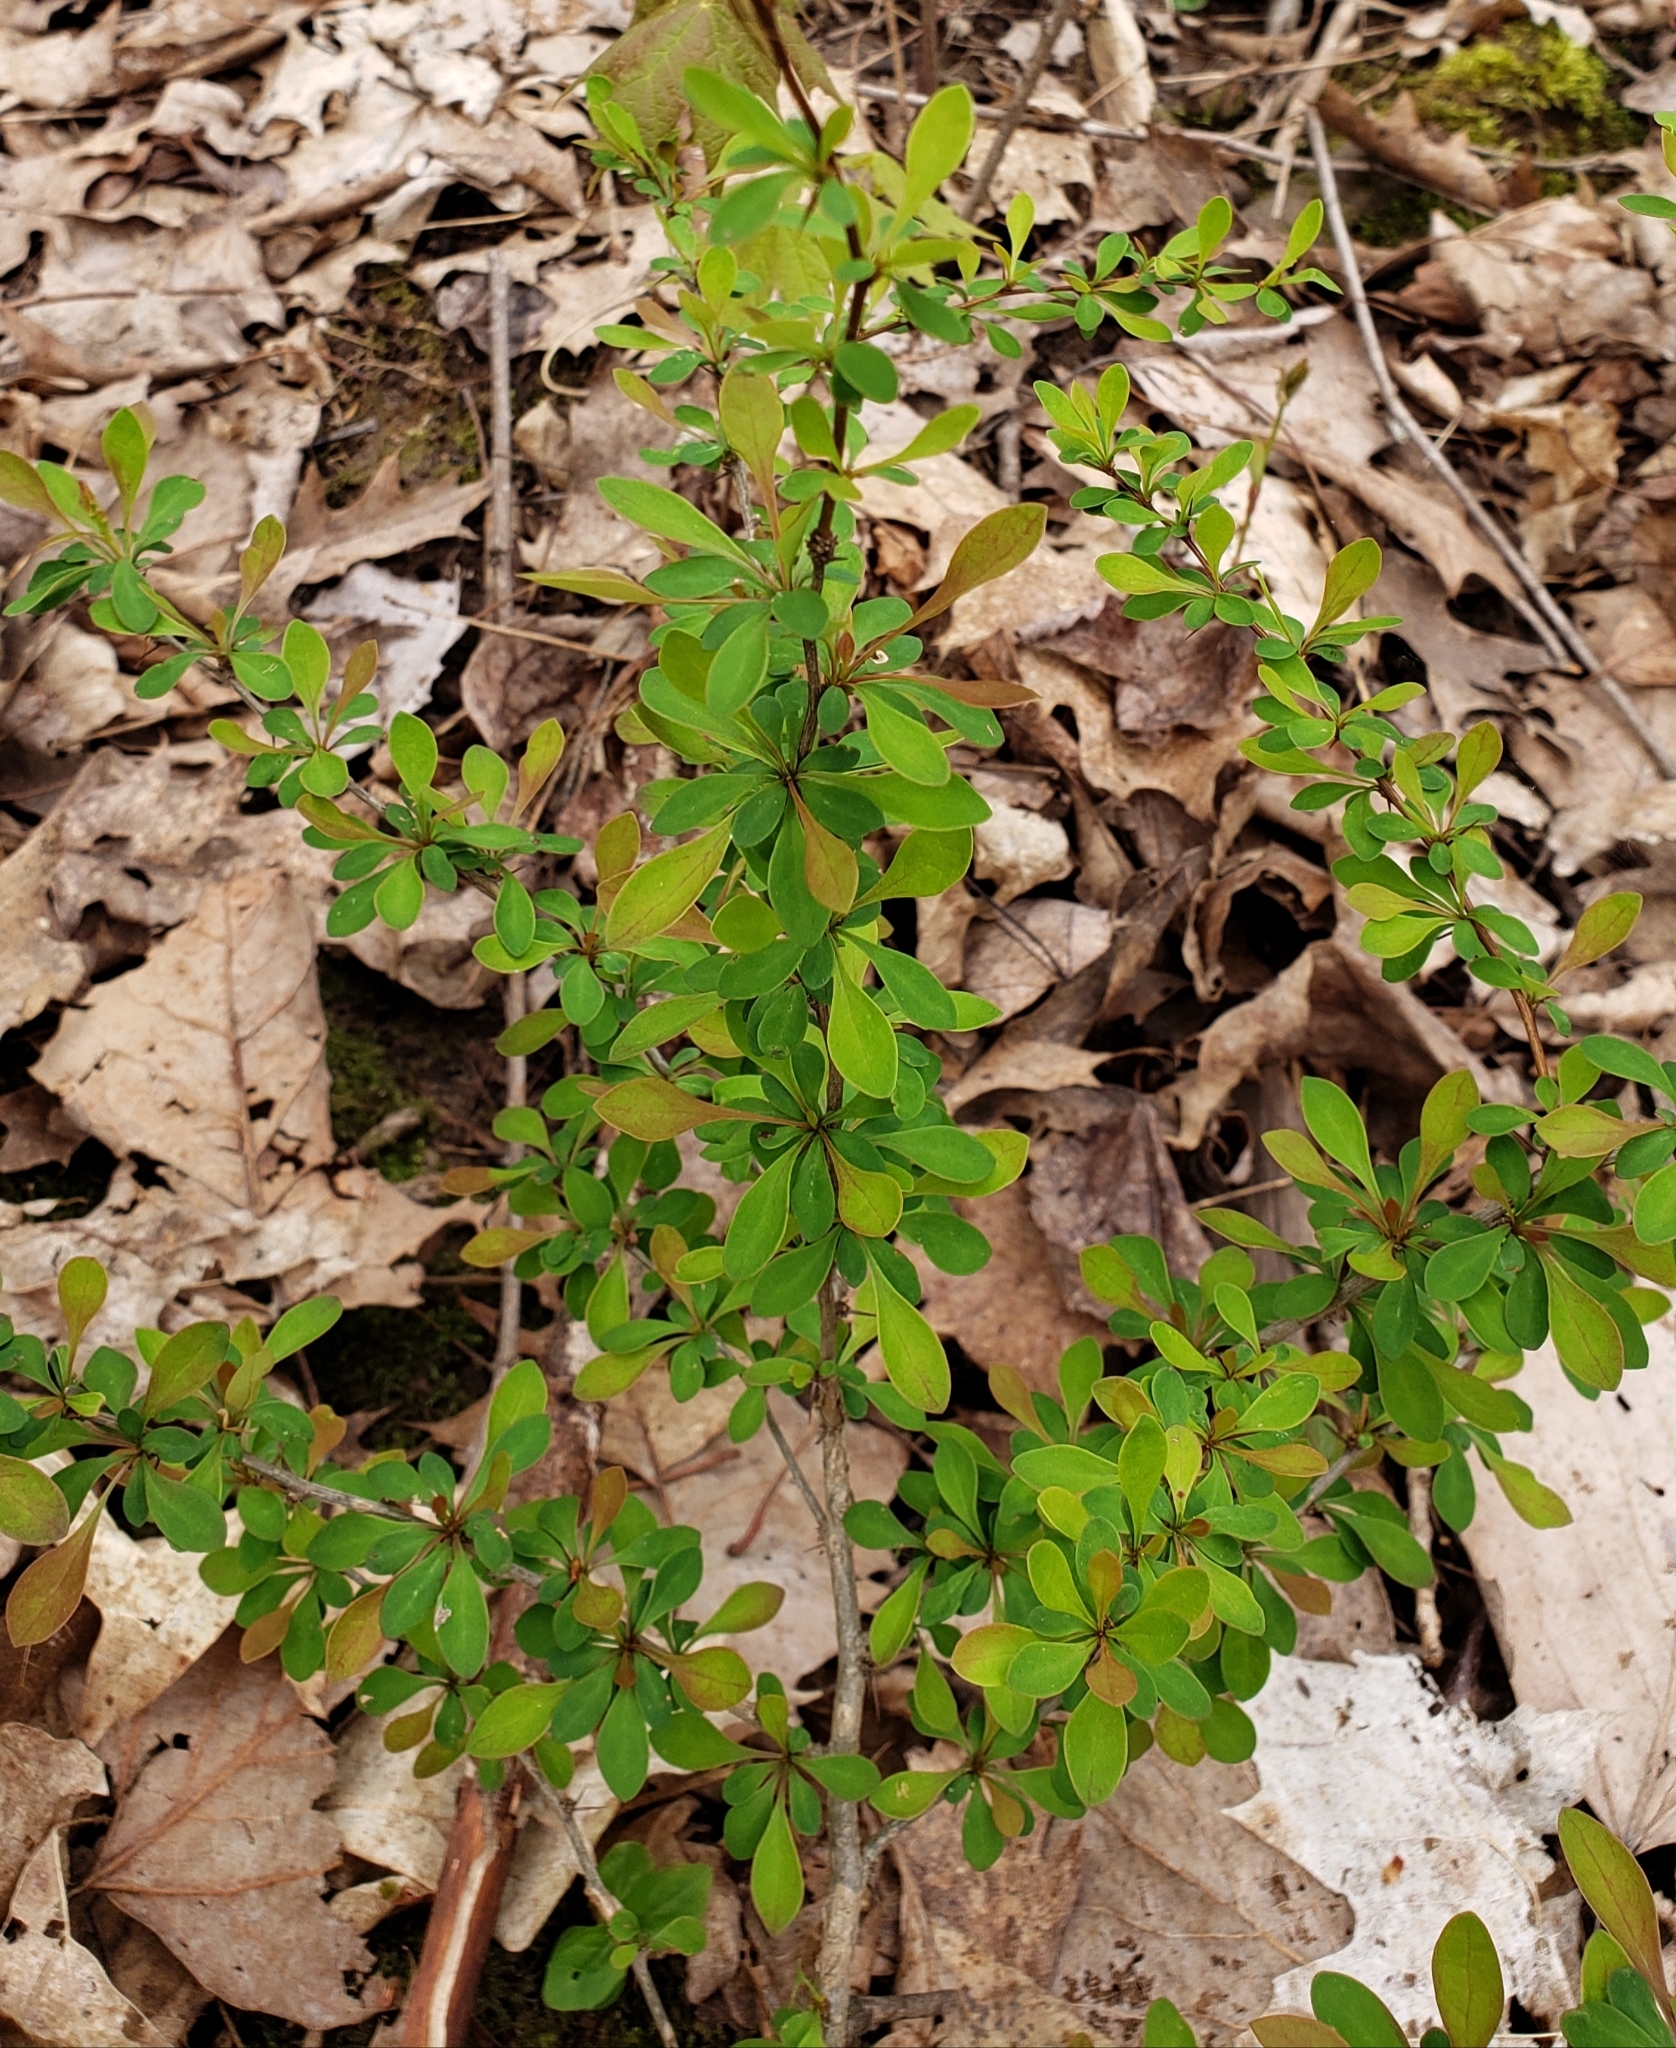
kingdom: Plantae
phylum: Tracheophyta
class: Magnoliopsida
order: Ranunculales
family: Berberidaceae
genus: Berberis
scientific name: Berberis thunbergii
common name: Japanese barberry
